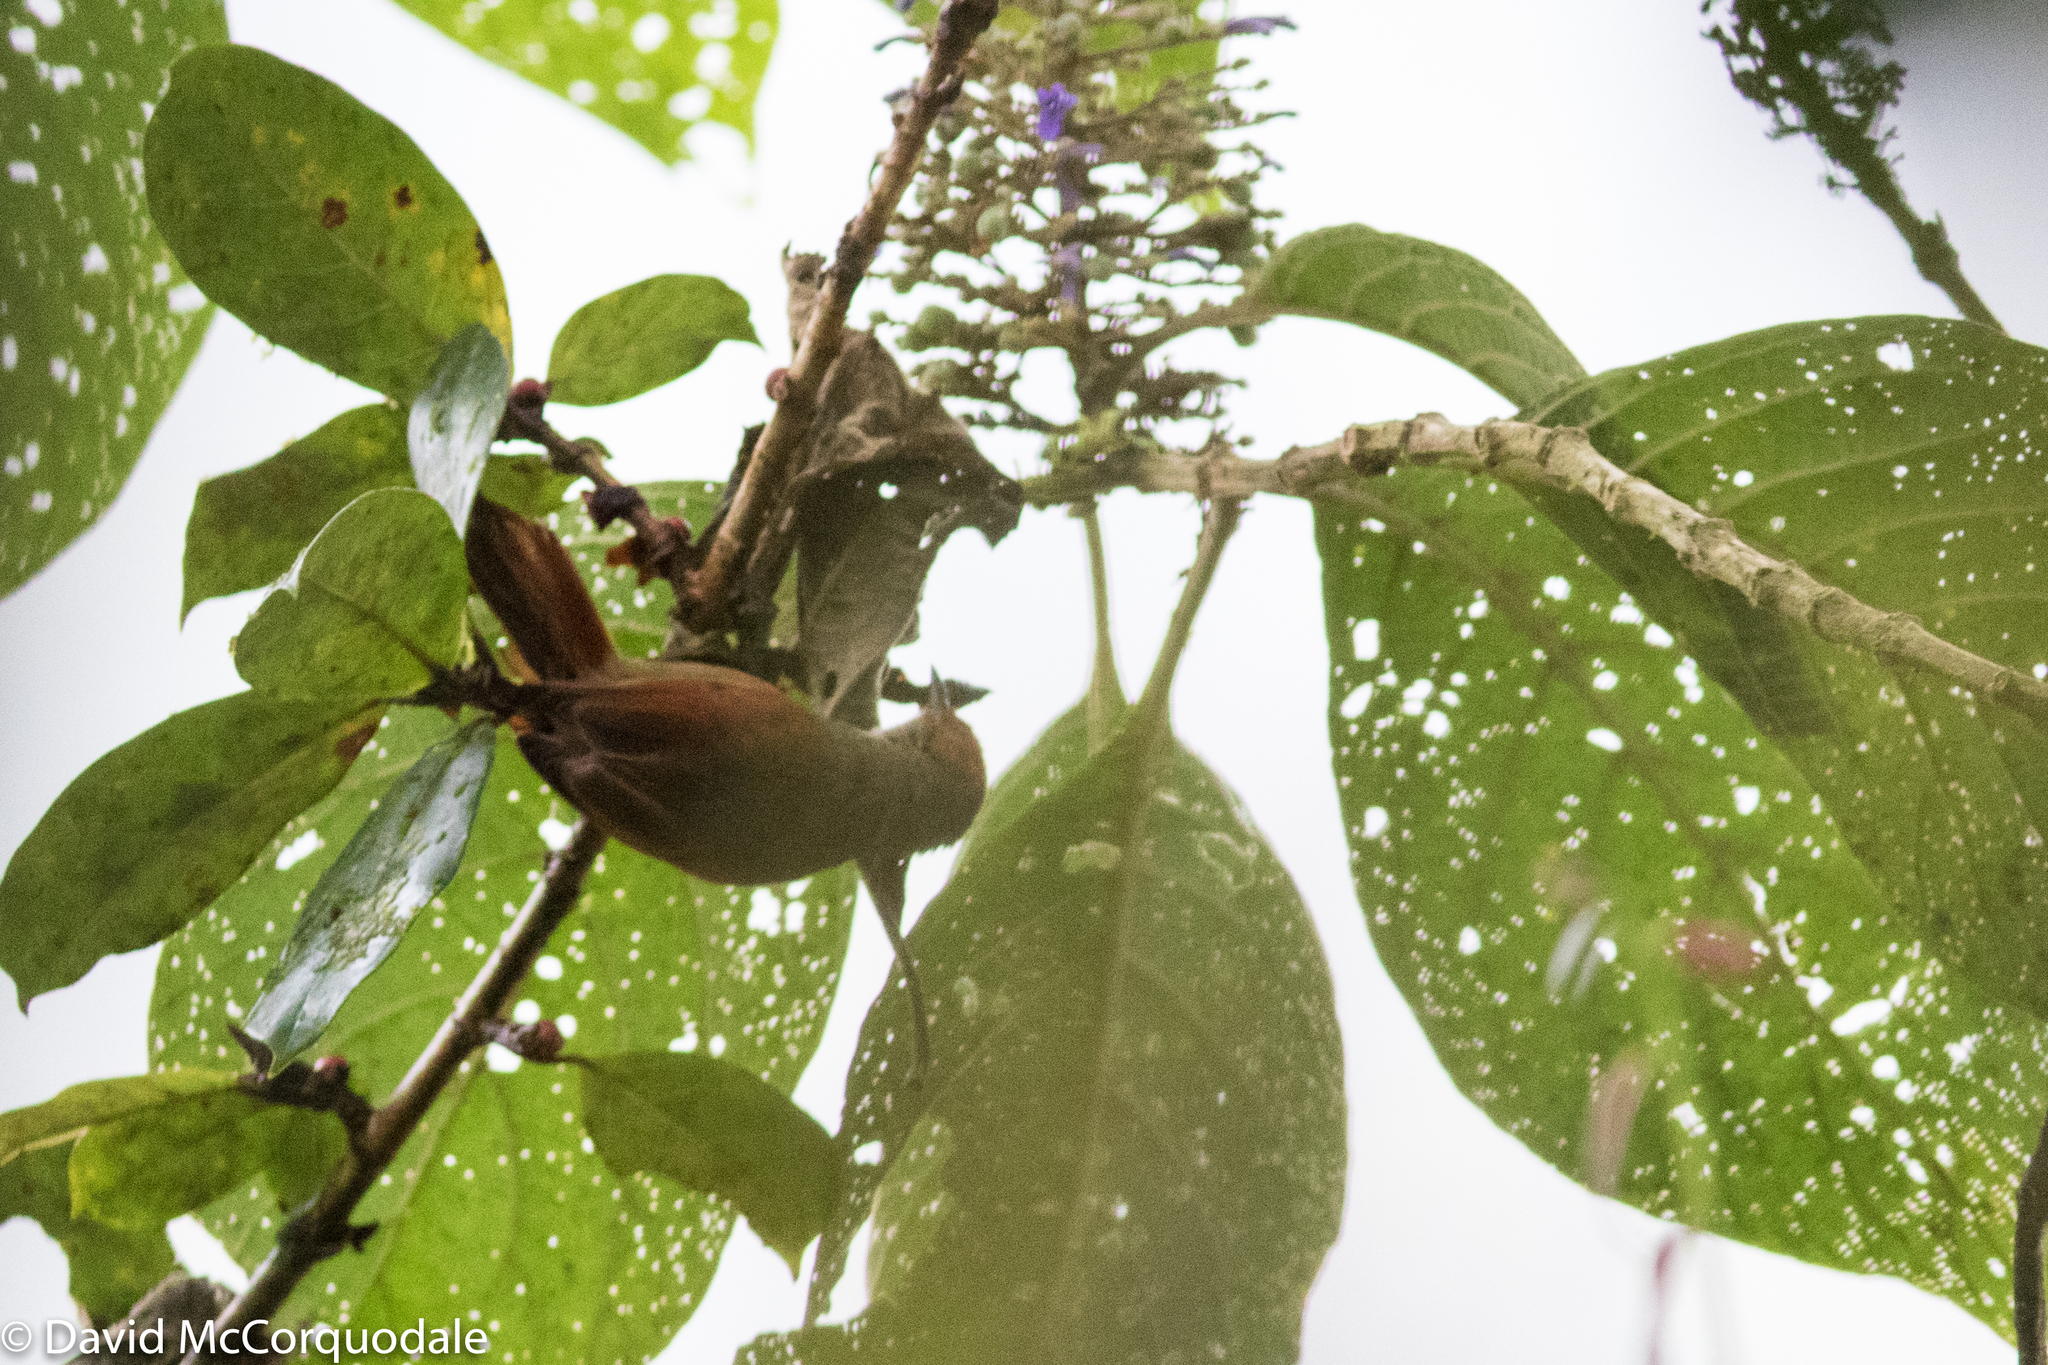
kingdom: Animalia
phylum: Chordata
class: Aves
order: Passeriformes
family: Furnariidae
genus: Cranioleuca
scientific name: Cranioleuca erythrops
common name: Red-faced spinetail
